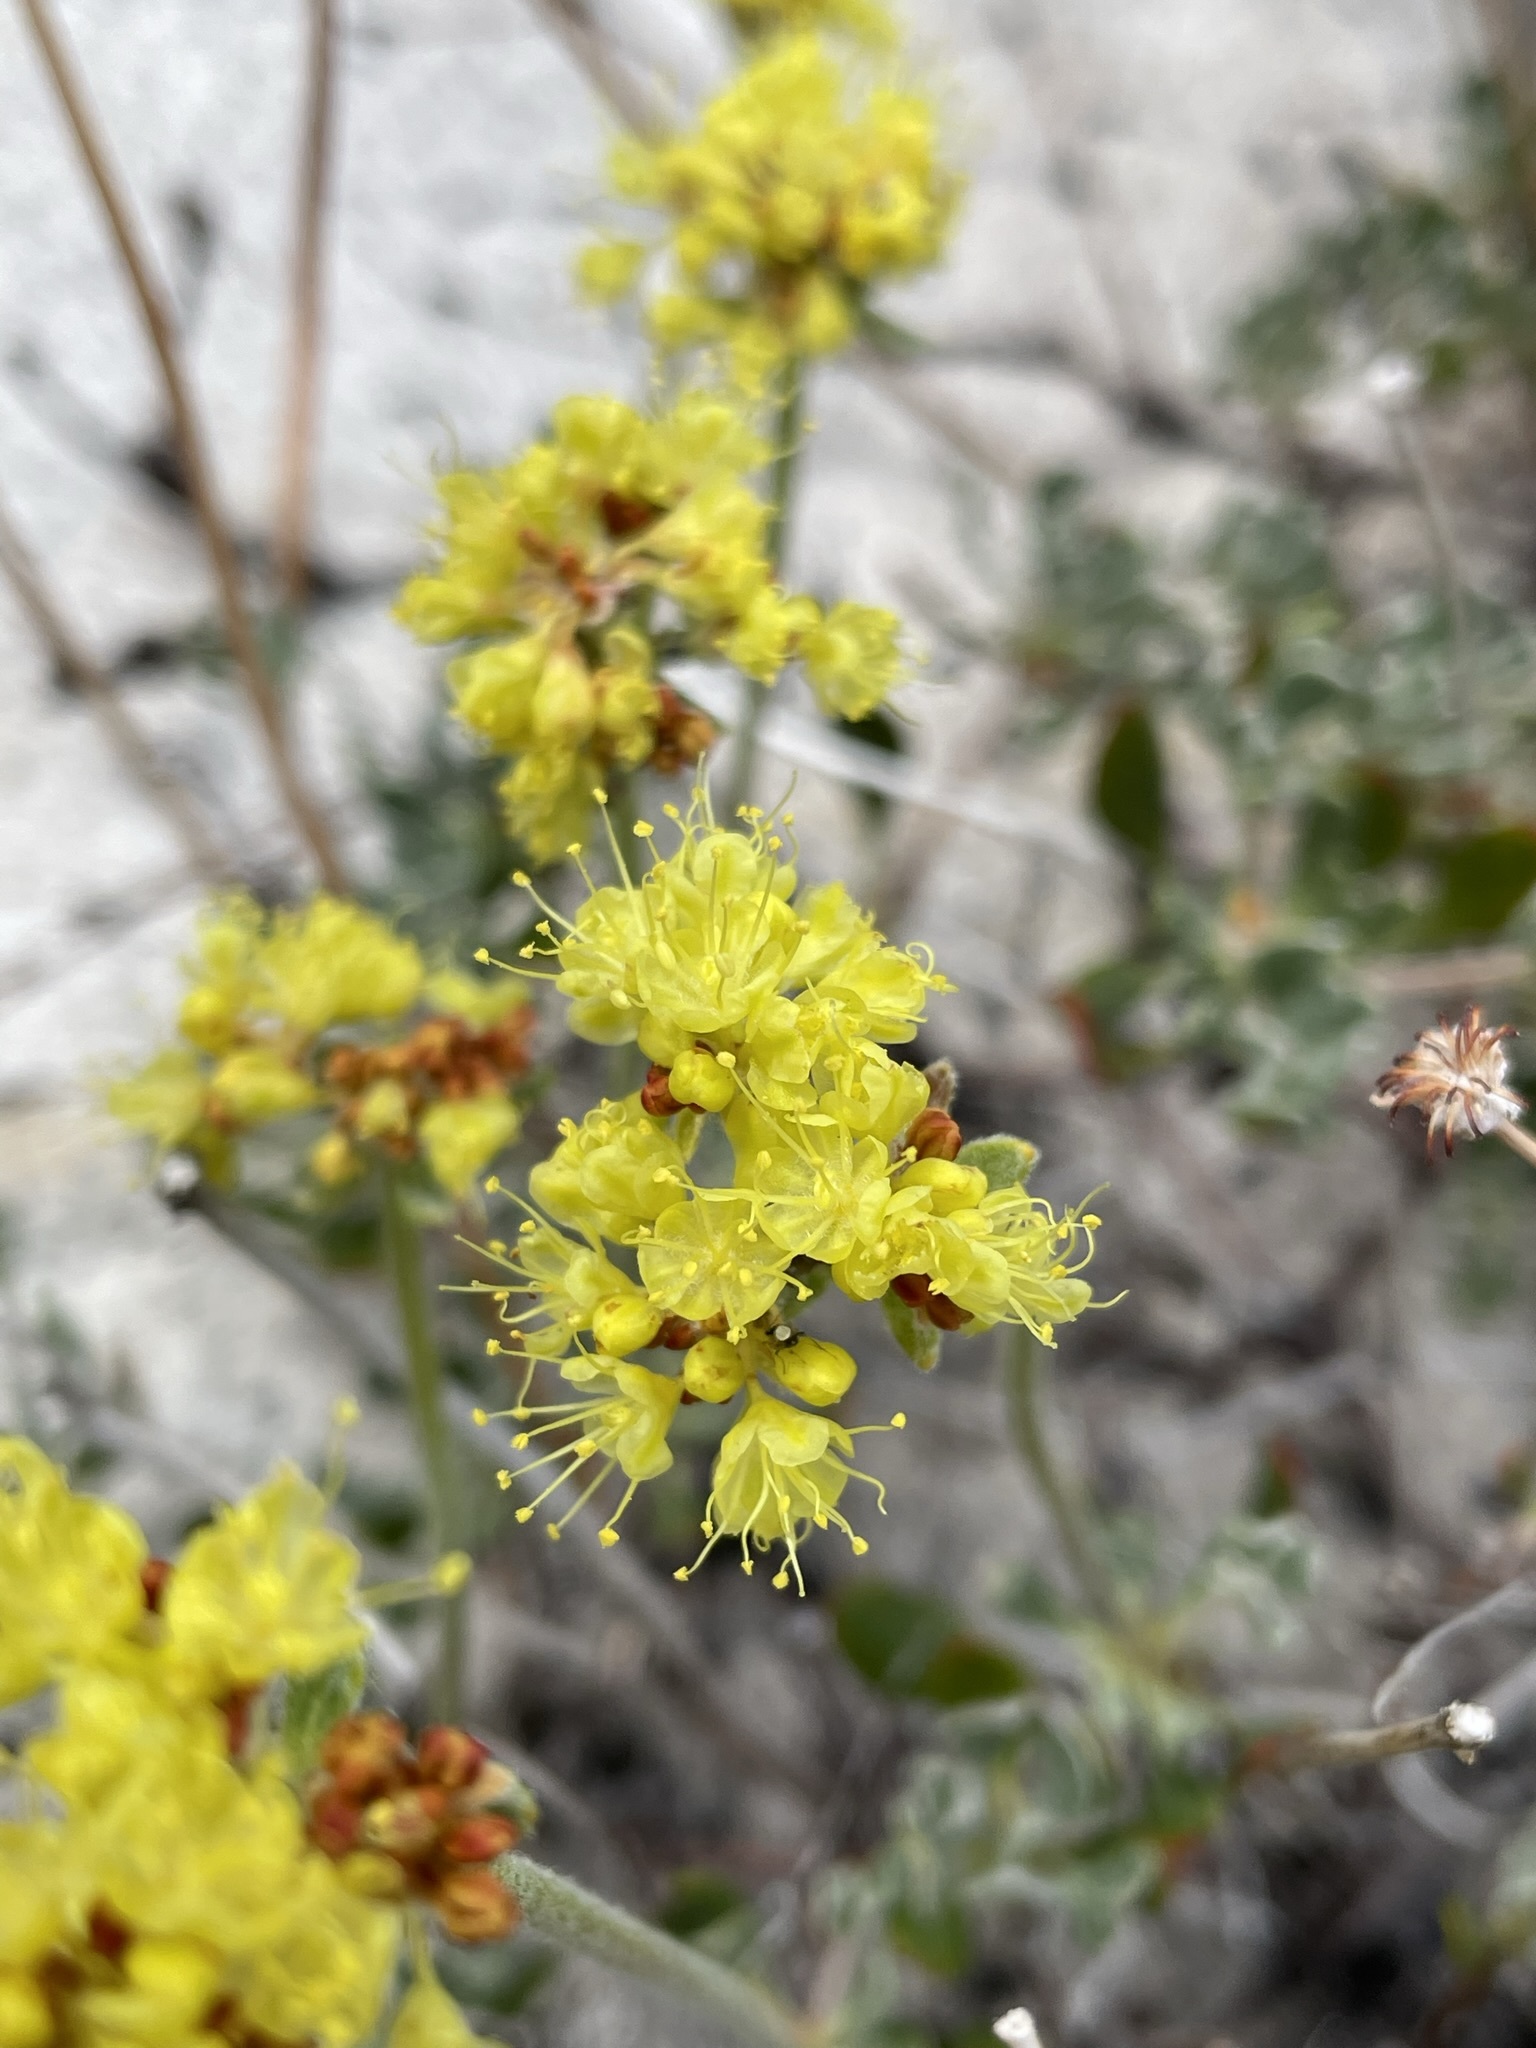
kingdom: Plantae
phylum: Tracheophyta
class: Magnoliopsida
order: Caryophyllales
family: Polygonaceae
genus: Eriogonum
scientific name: Eriogonum umbellatum
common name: Sulfur-buckwheat
